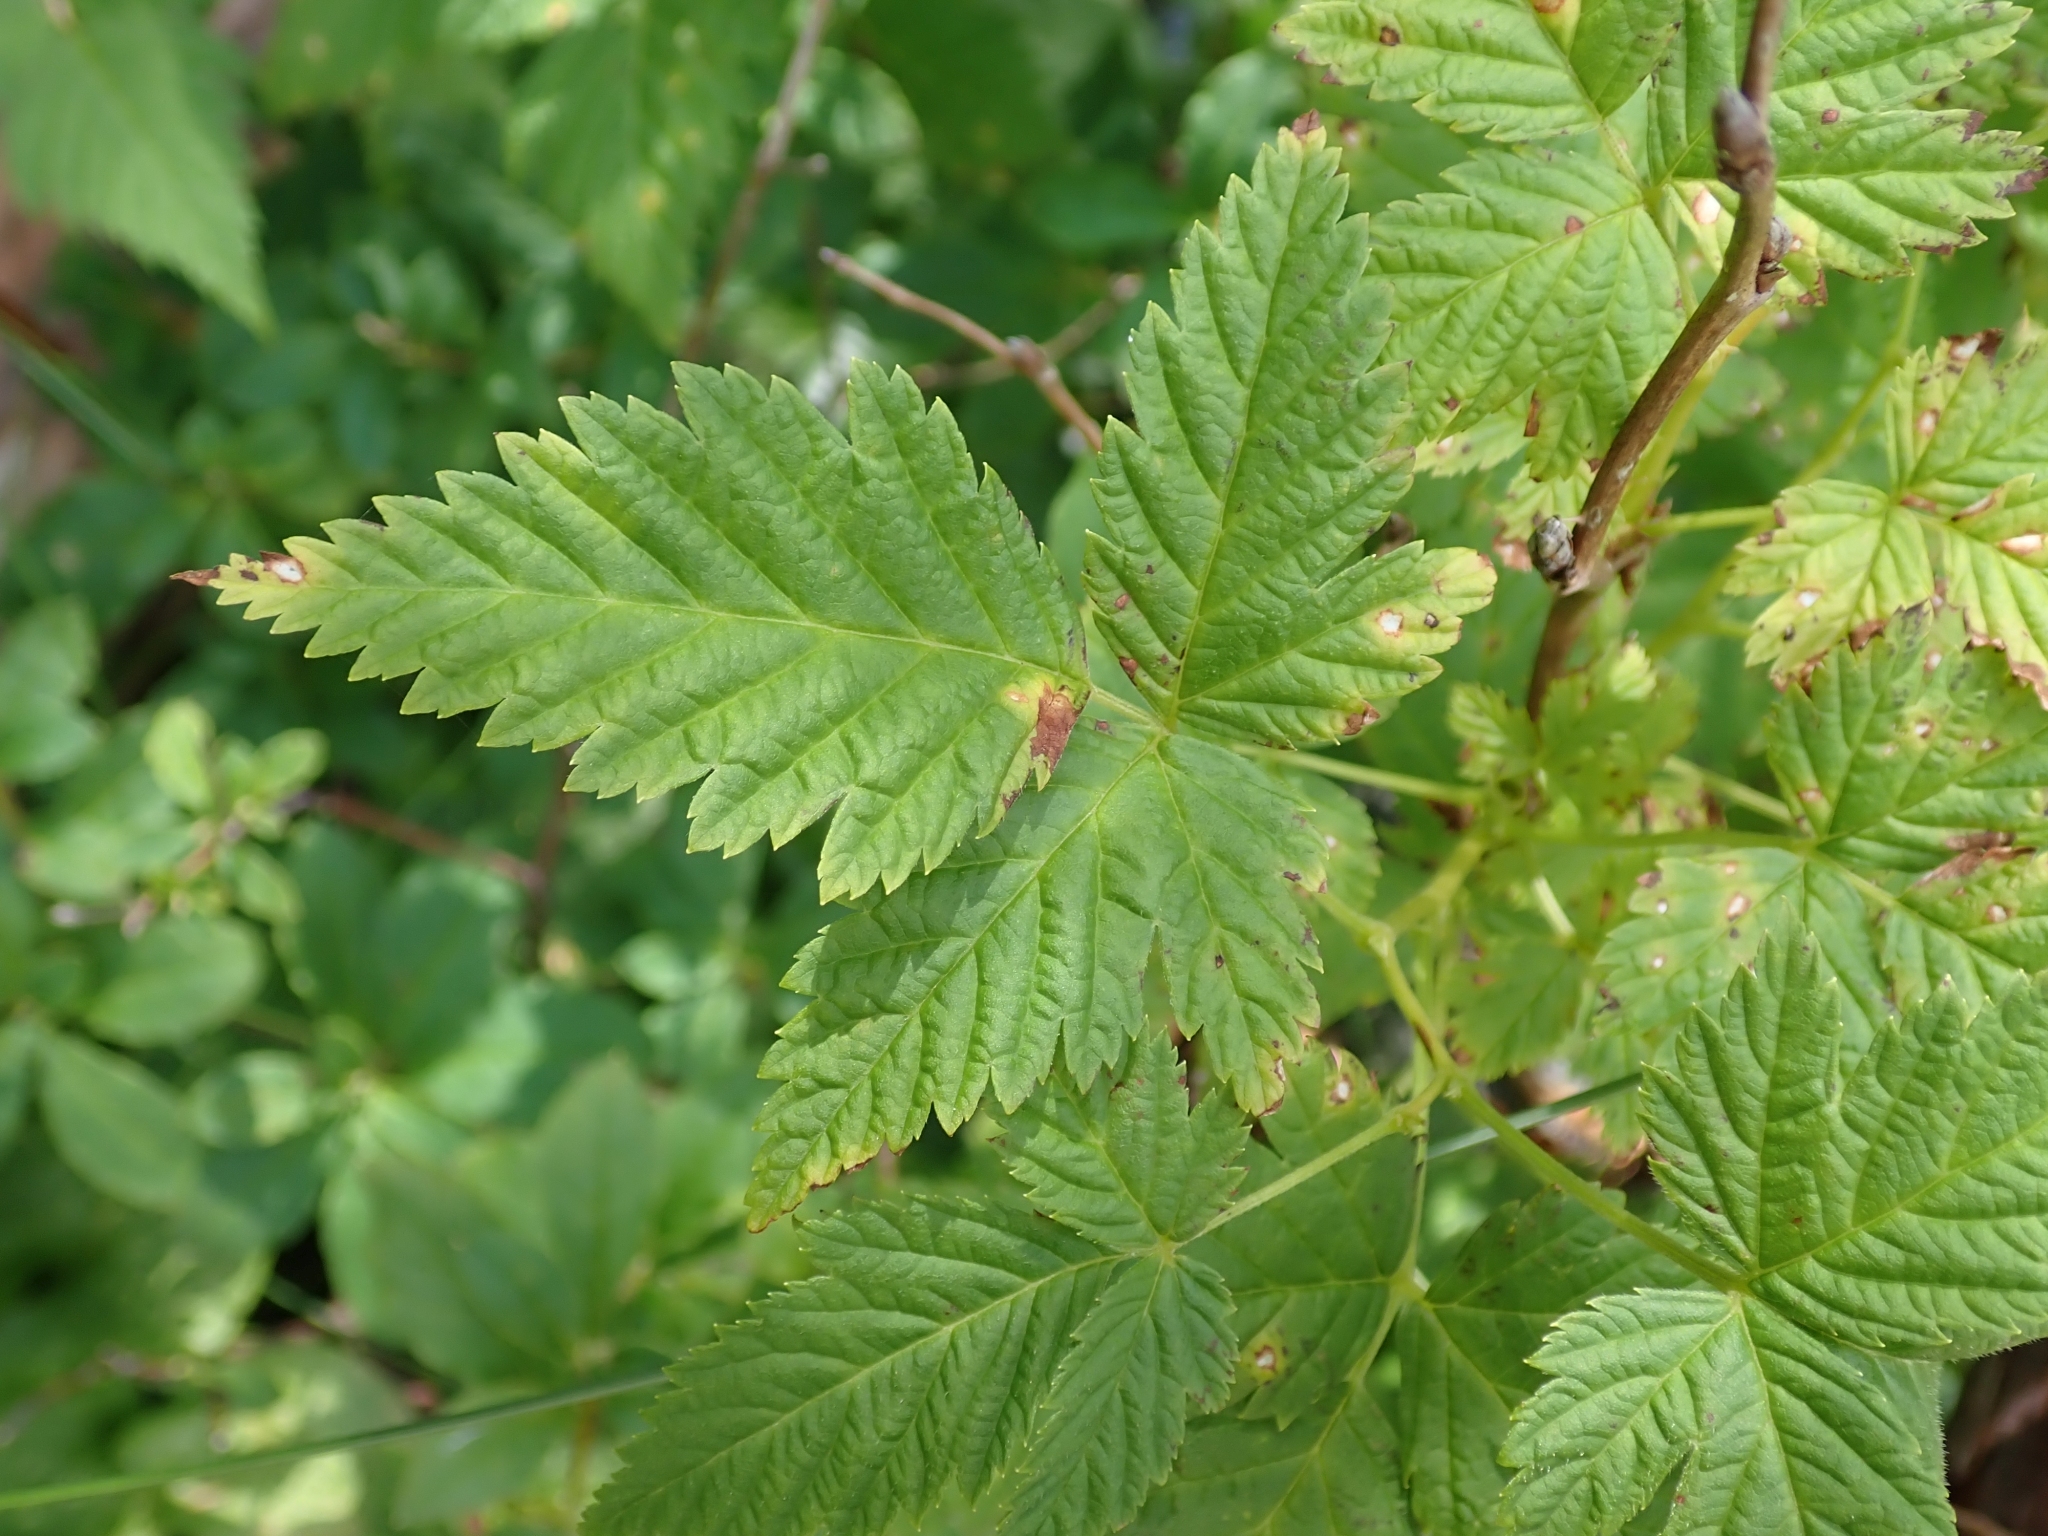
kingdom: Plantae
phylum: Tracheophyta
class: Magnoliopsida
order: Rosales
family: Rosaceae
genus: Rubus
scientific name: Rubus spectabilis
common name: Salmonberry
